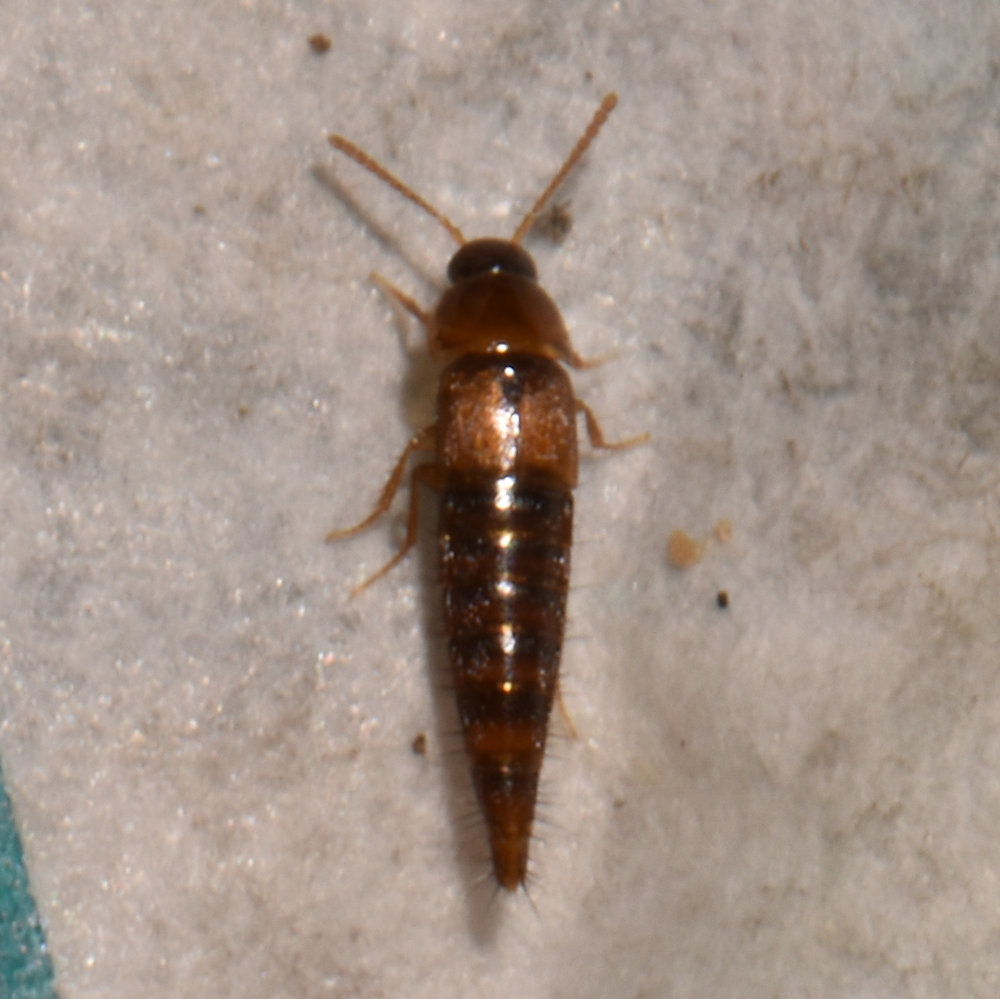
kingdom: Animalia
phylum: Arthropoda
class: Insecta
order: Coleoptera
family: Staphylinidae
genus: Palporus
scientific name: Palporus nitidulus
